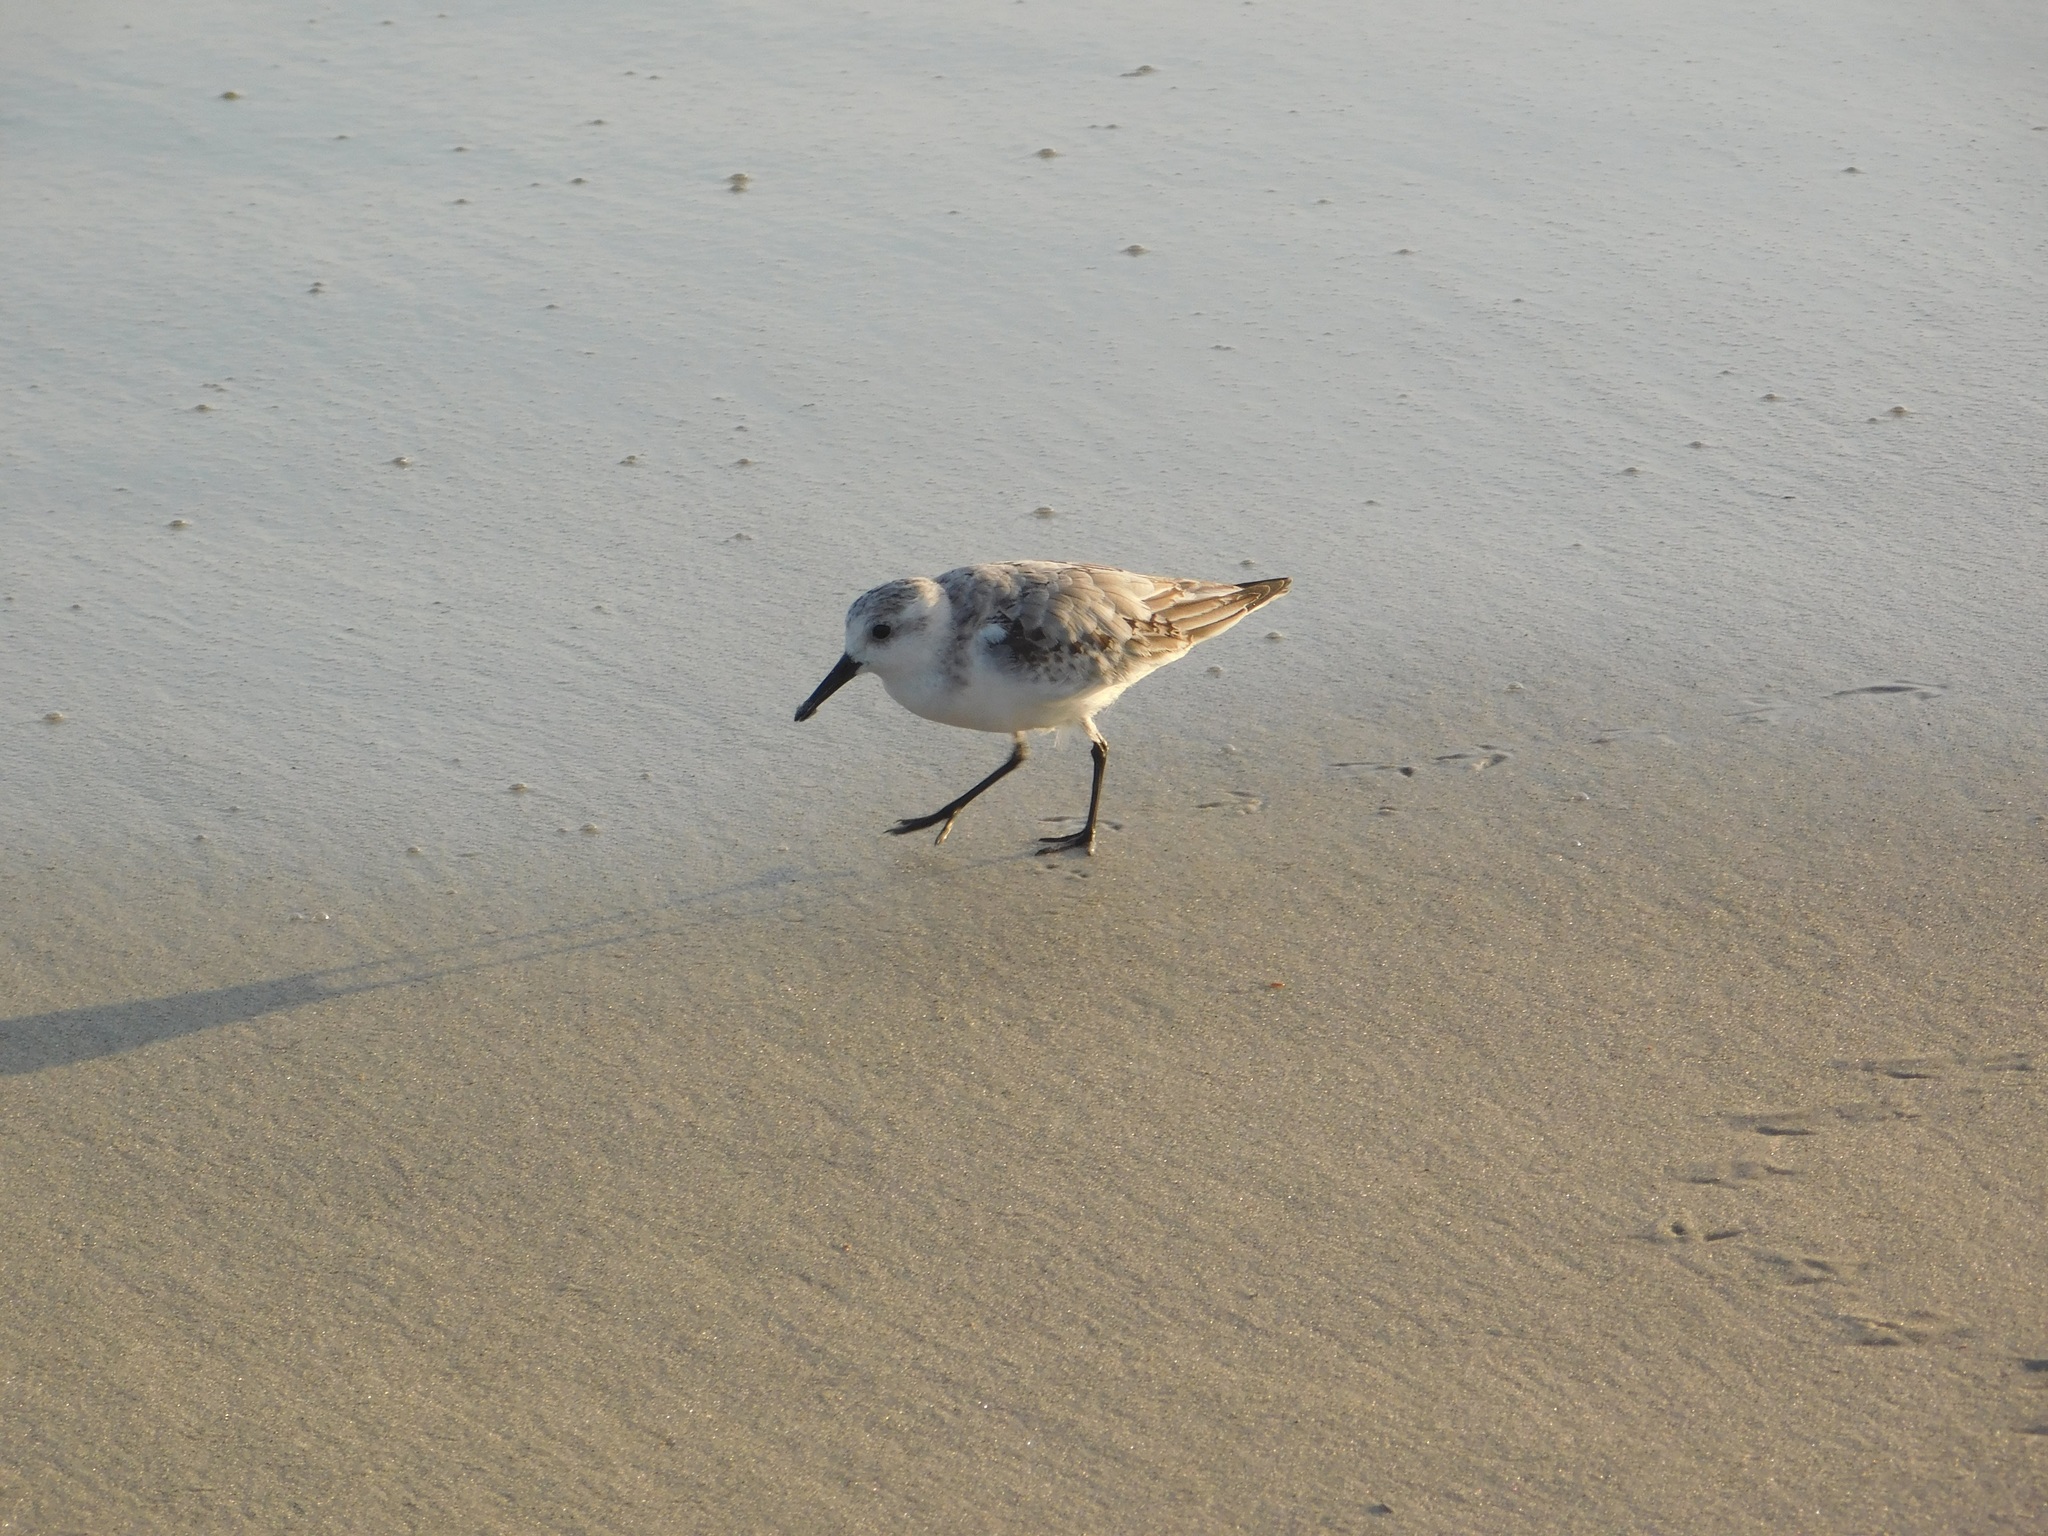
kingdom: Animalia
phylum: Chordata
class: Aves
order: Charadriiformes
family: Scolopacidae
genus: Calidris
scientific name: Calidris alba
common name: Sanderling
